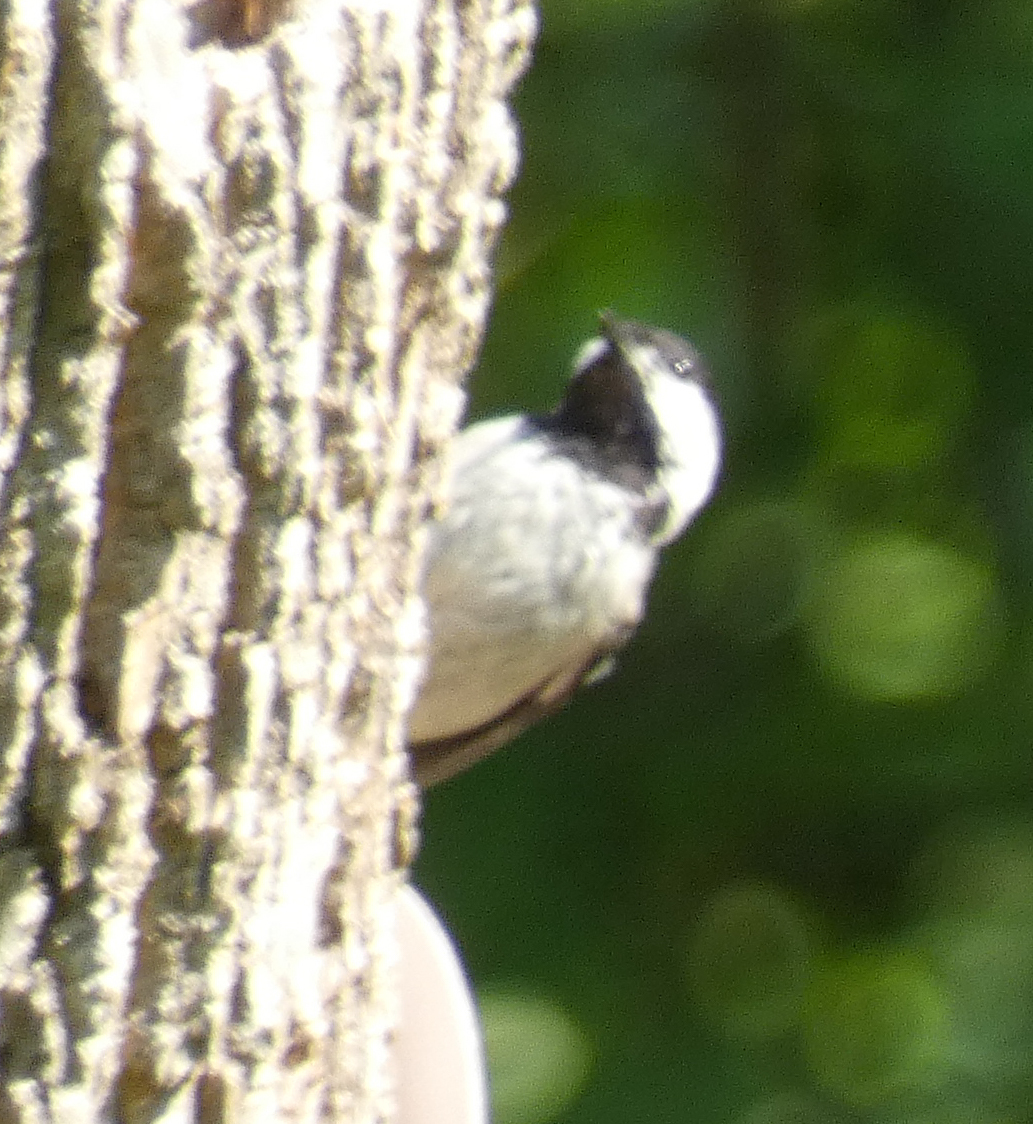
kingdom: Animalia
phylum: Chordata
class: Aves
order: Passeriformes
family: Paridae
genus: Poecile
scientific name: Poecile carolinensis
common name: Carolina chickadee
